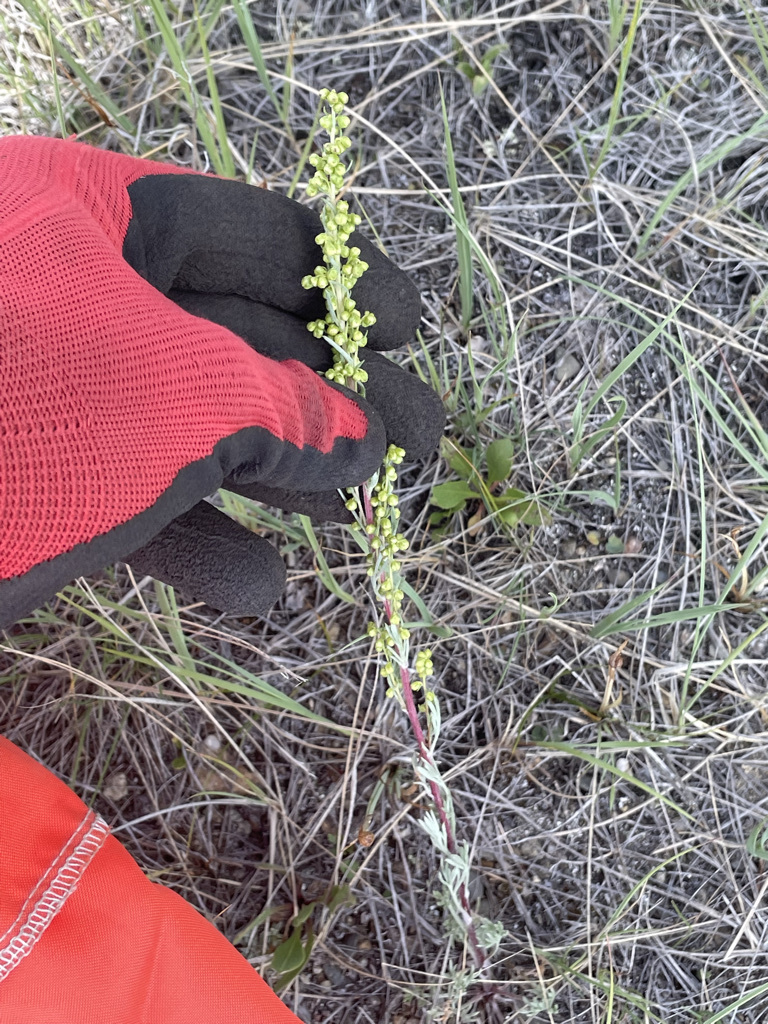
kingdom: Plantae
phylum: Tracheophyta
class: Magnoliopsida
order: Asterales
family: Asteraceae
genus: Artemisia
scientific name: Artemisia campestris
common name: Field wormwood
